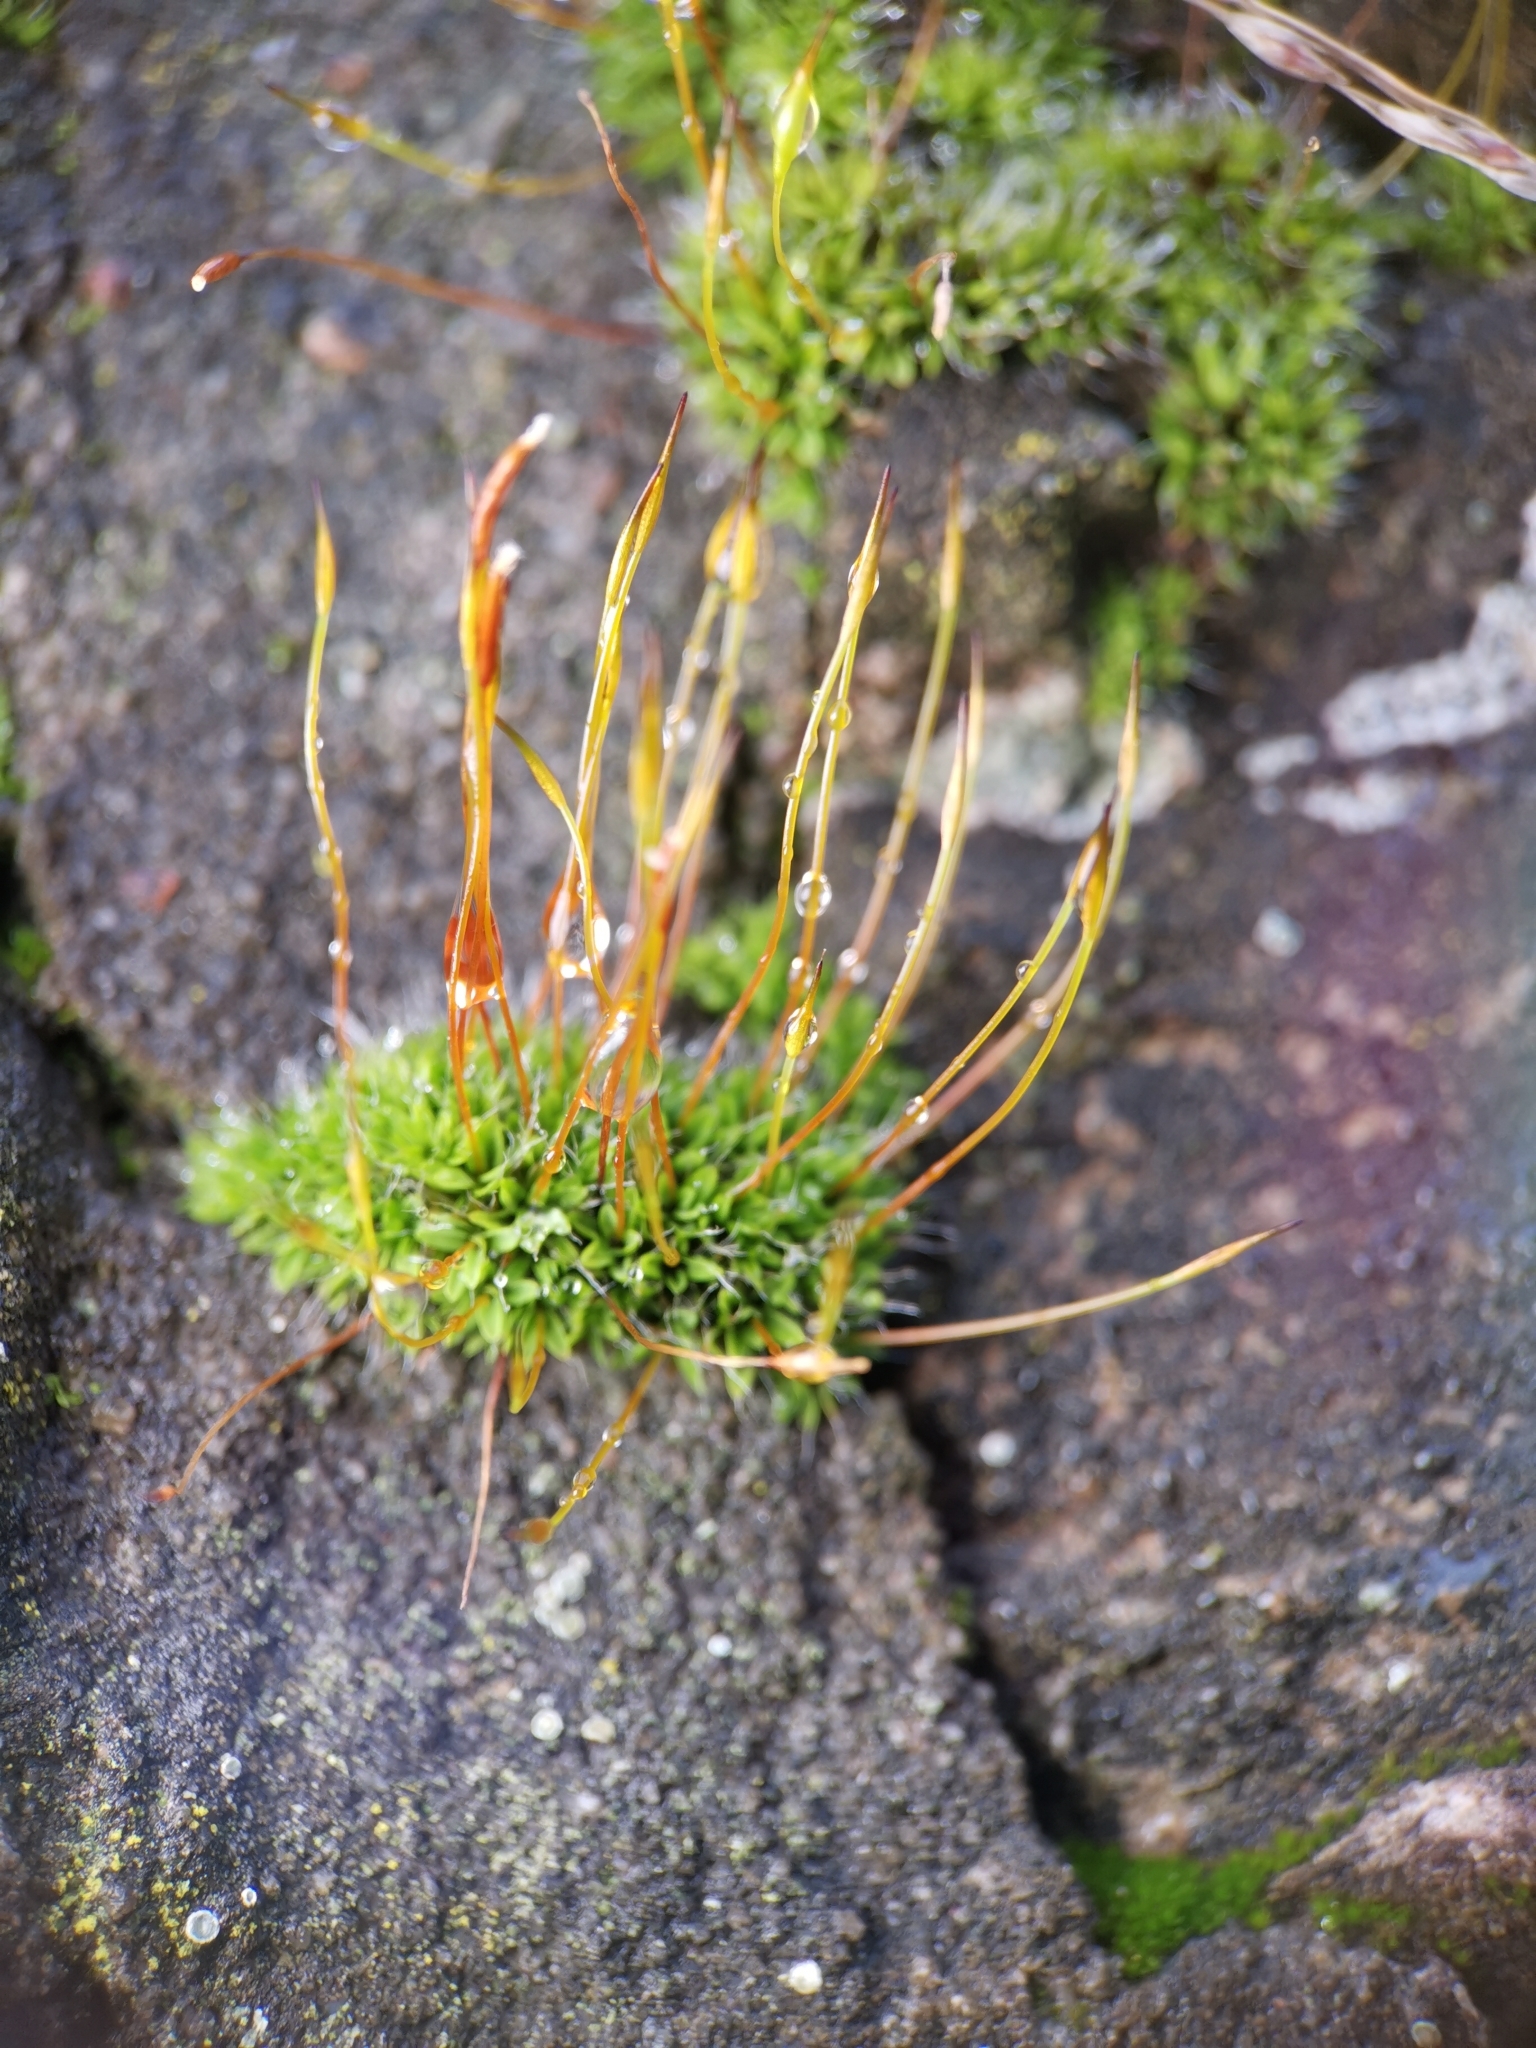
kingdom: Plantae
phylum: Bryophyta
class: Bryopsida
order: Pottiales
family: Pottiaceae
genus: Tortula
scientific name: Tortula muralis
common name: Wall screw-moss
